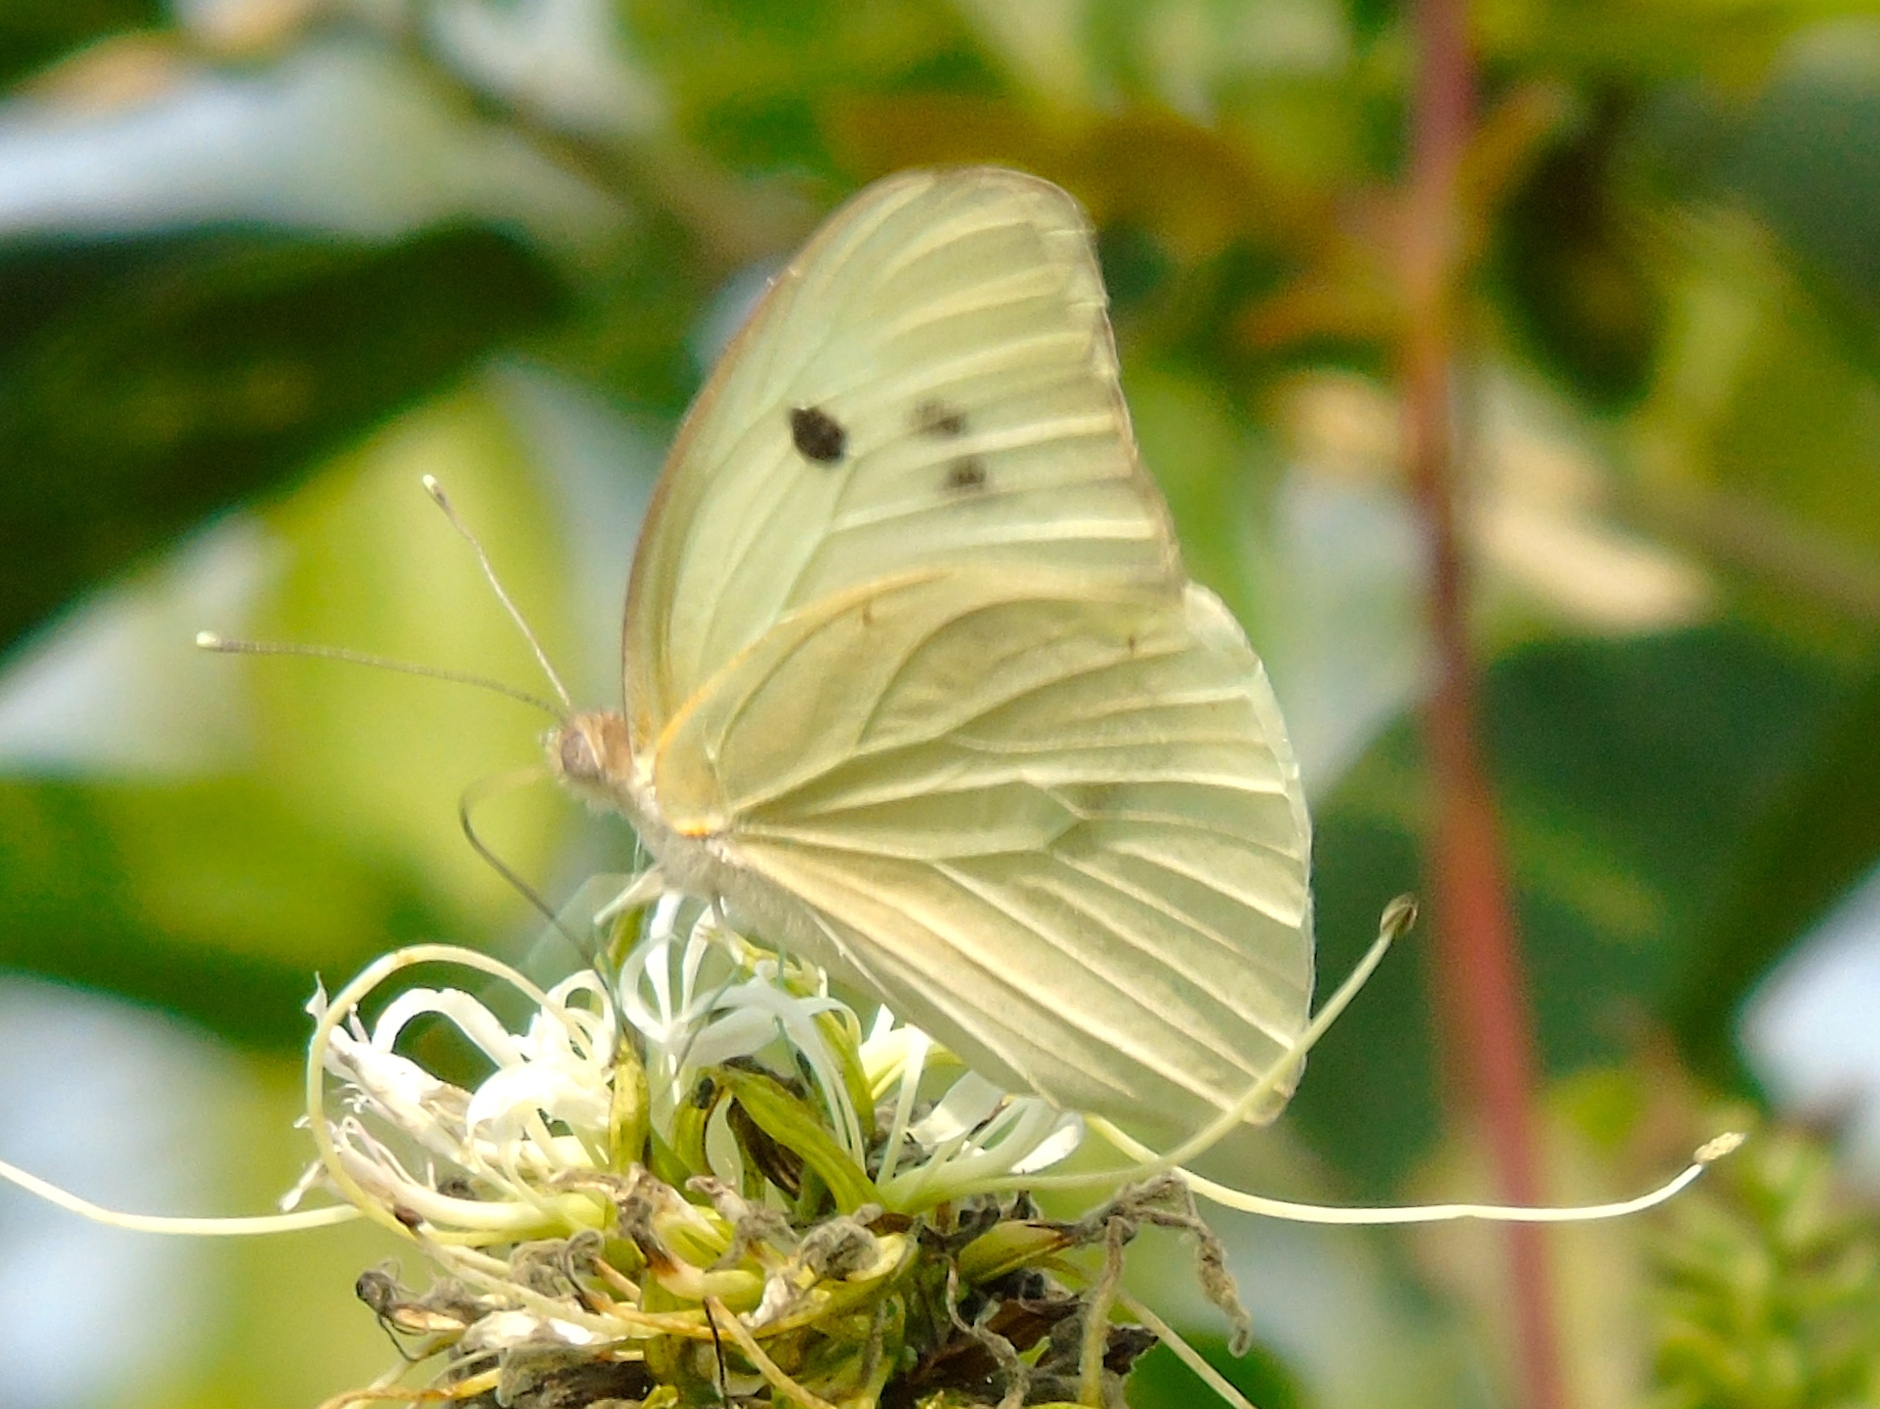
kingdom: Animalia
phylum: Arthropoda
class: Insecta
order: Lepidoptera
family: Pieridae
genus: Ganyra
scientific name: Ganyra josephina
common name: Giant white
